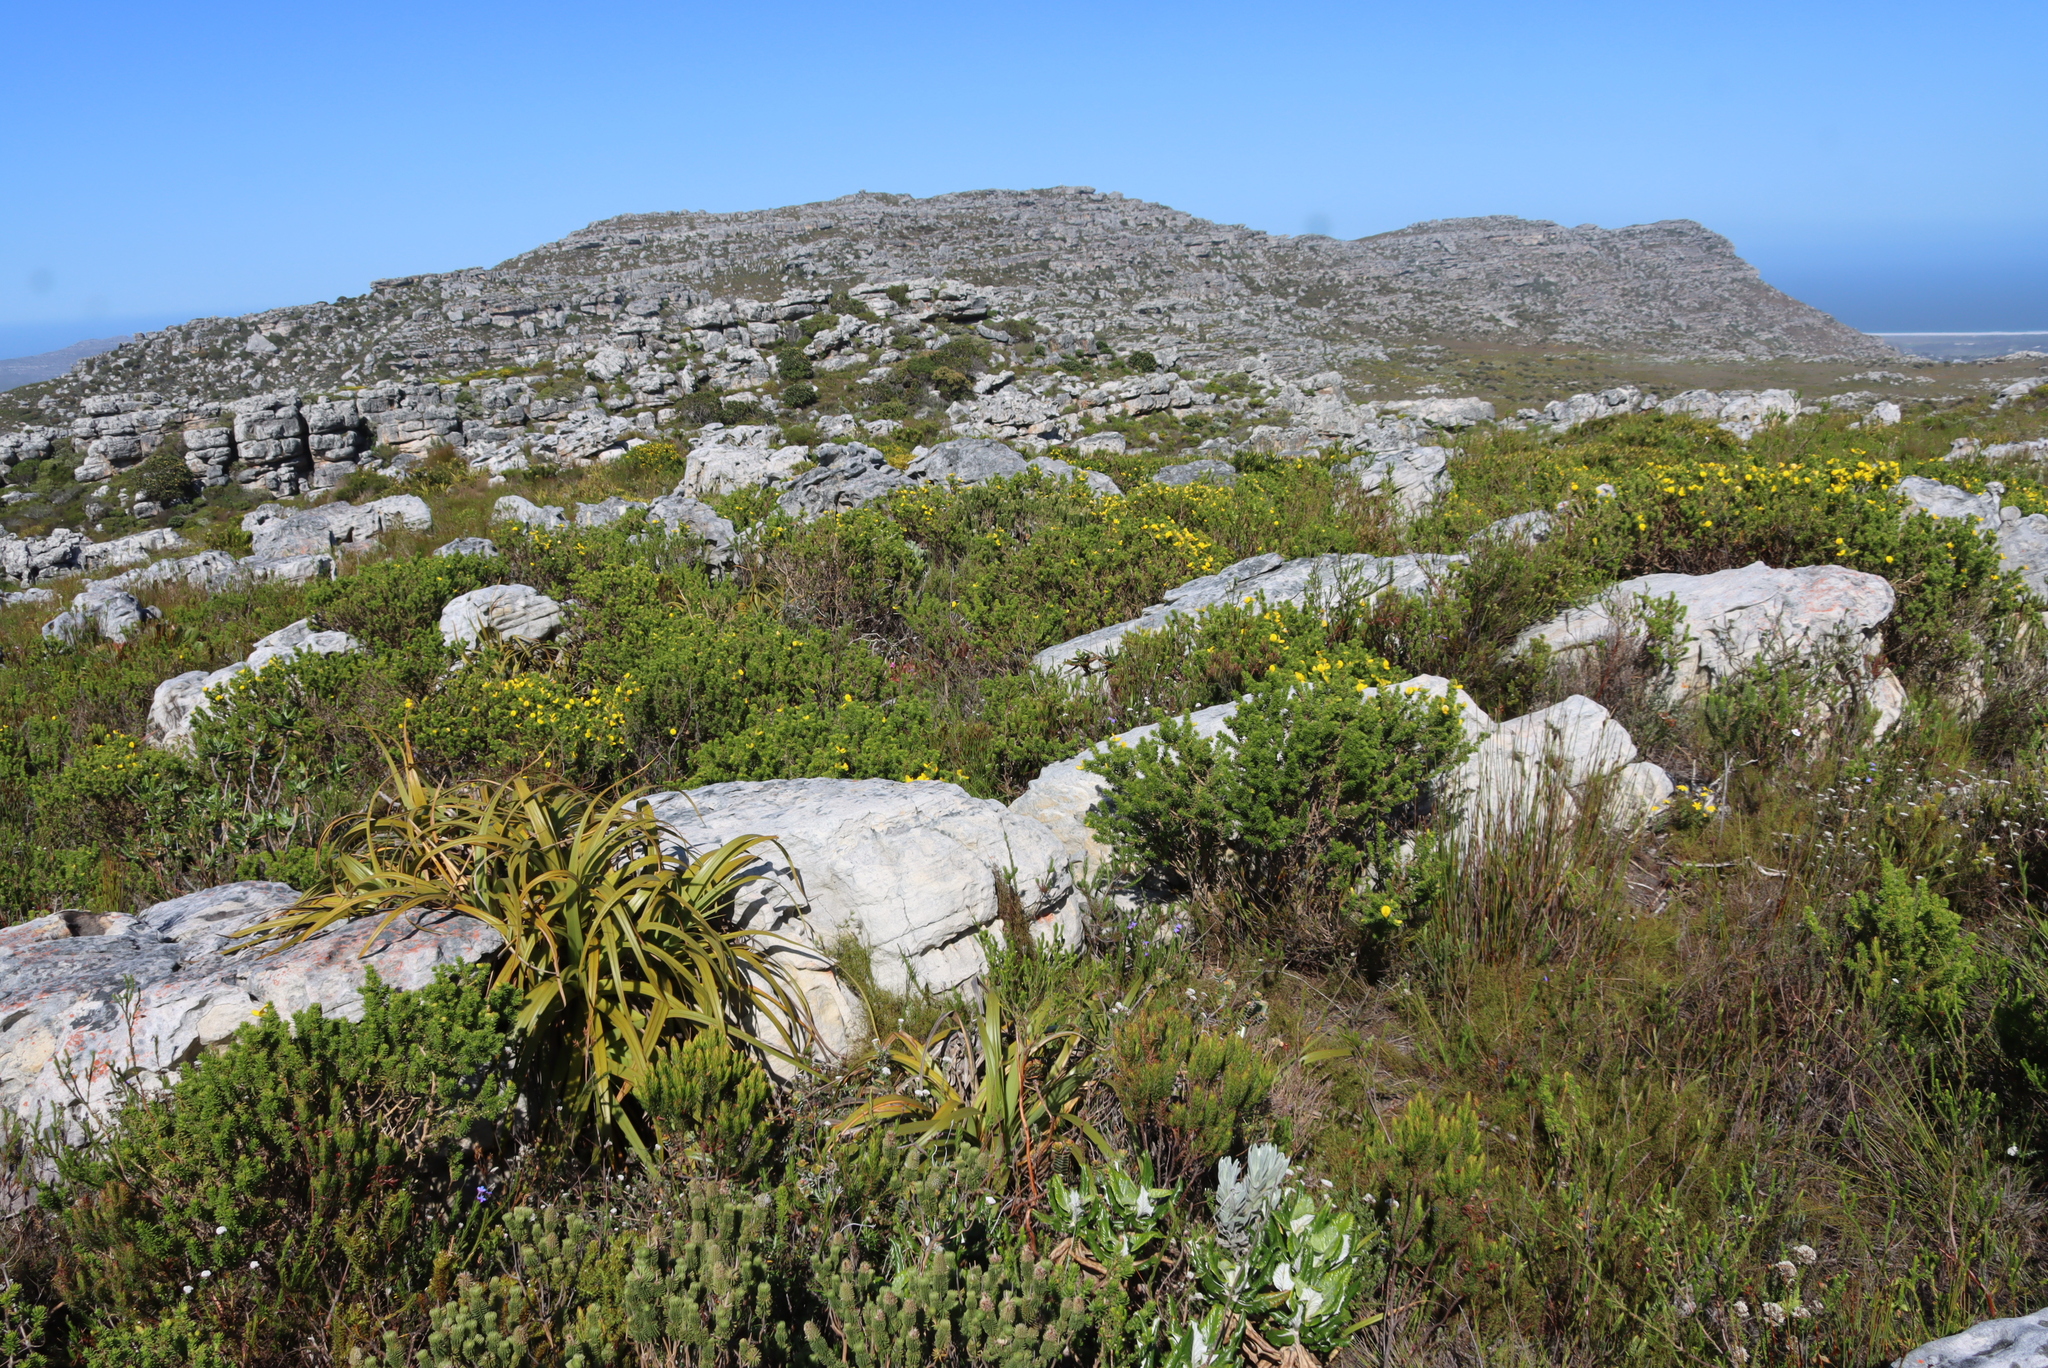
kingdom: Plantae
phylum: Tracheophyta
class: Magnoliopsida
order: Fabales
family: Fabaceae
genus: Aspalathus
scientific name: Aspalathus capensis
